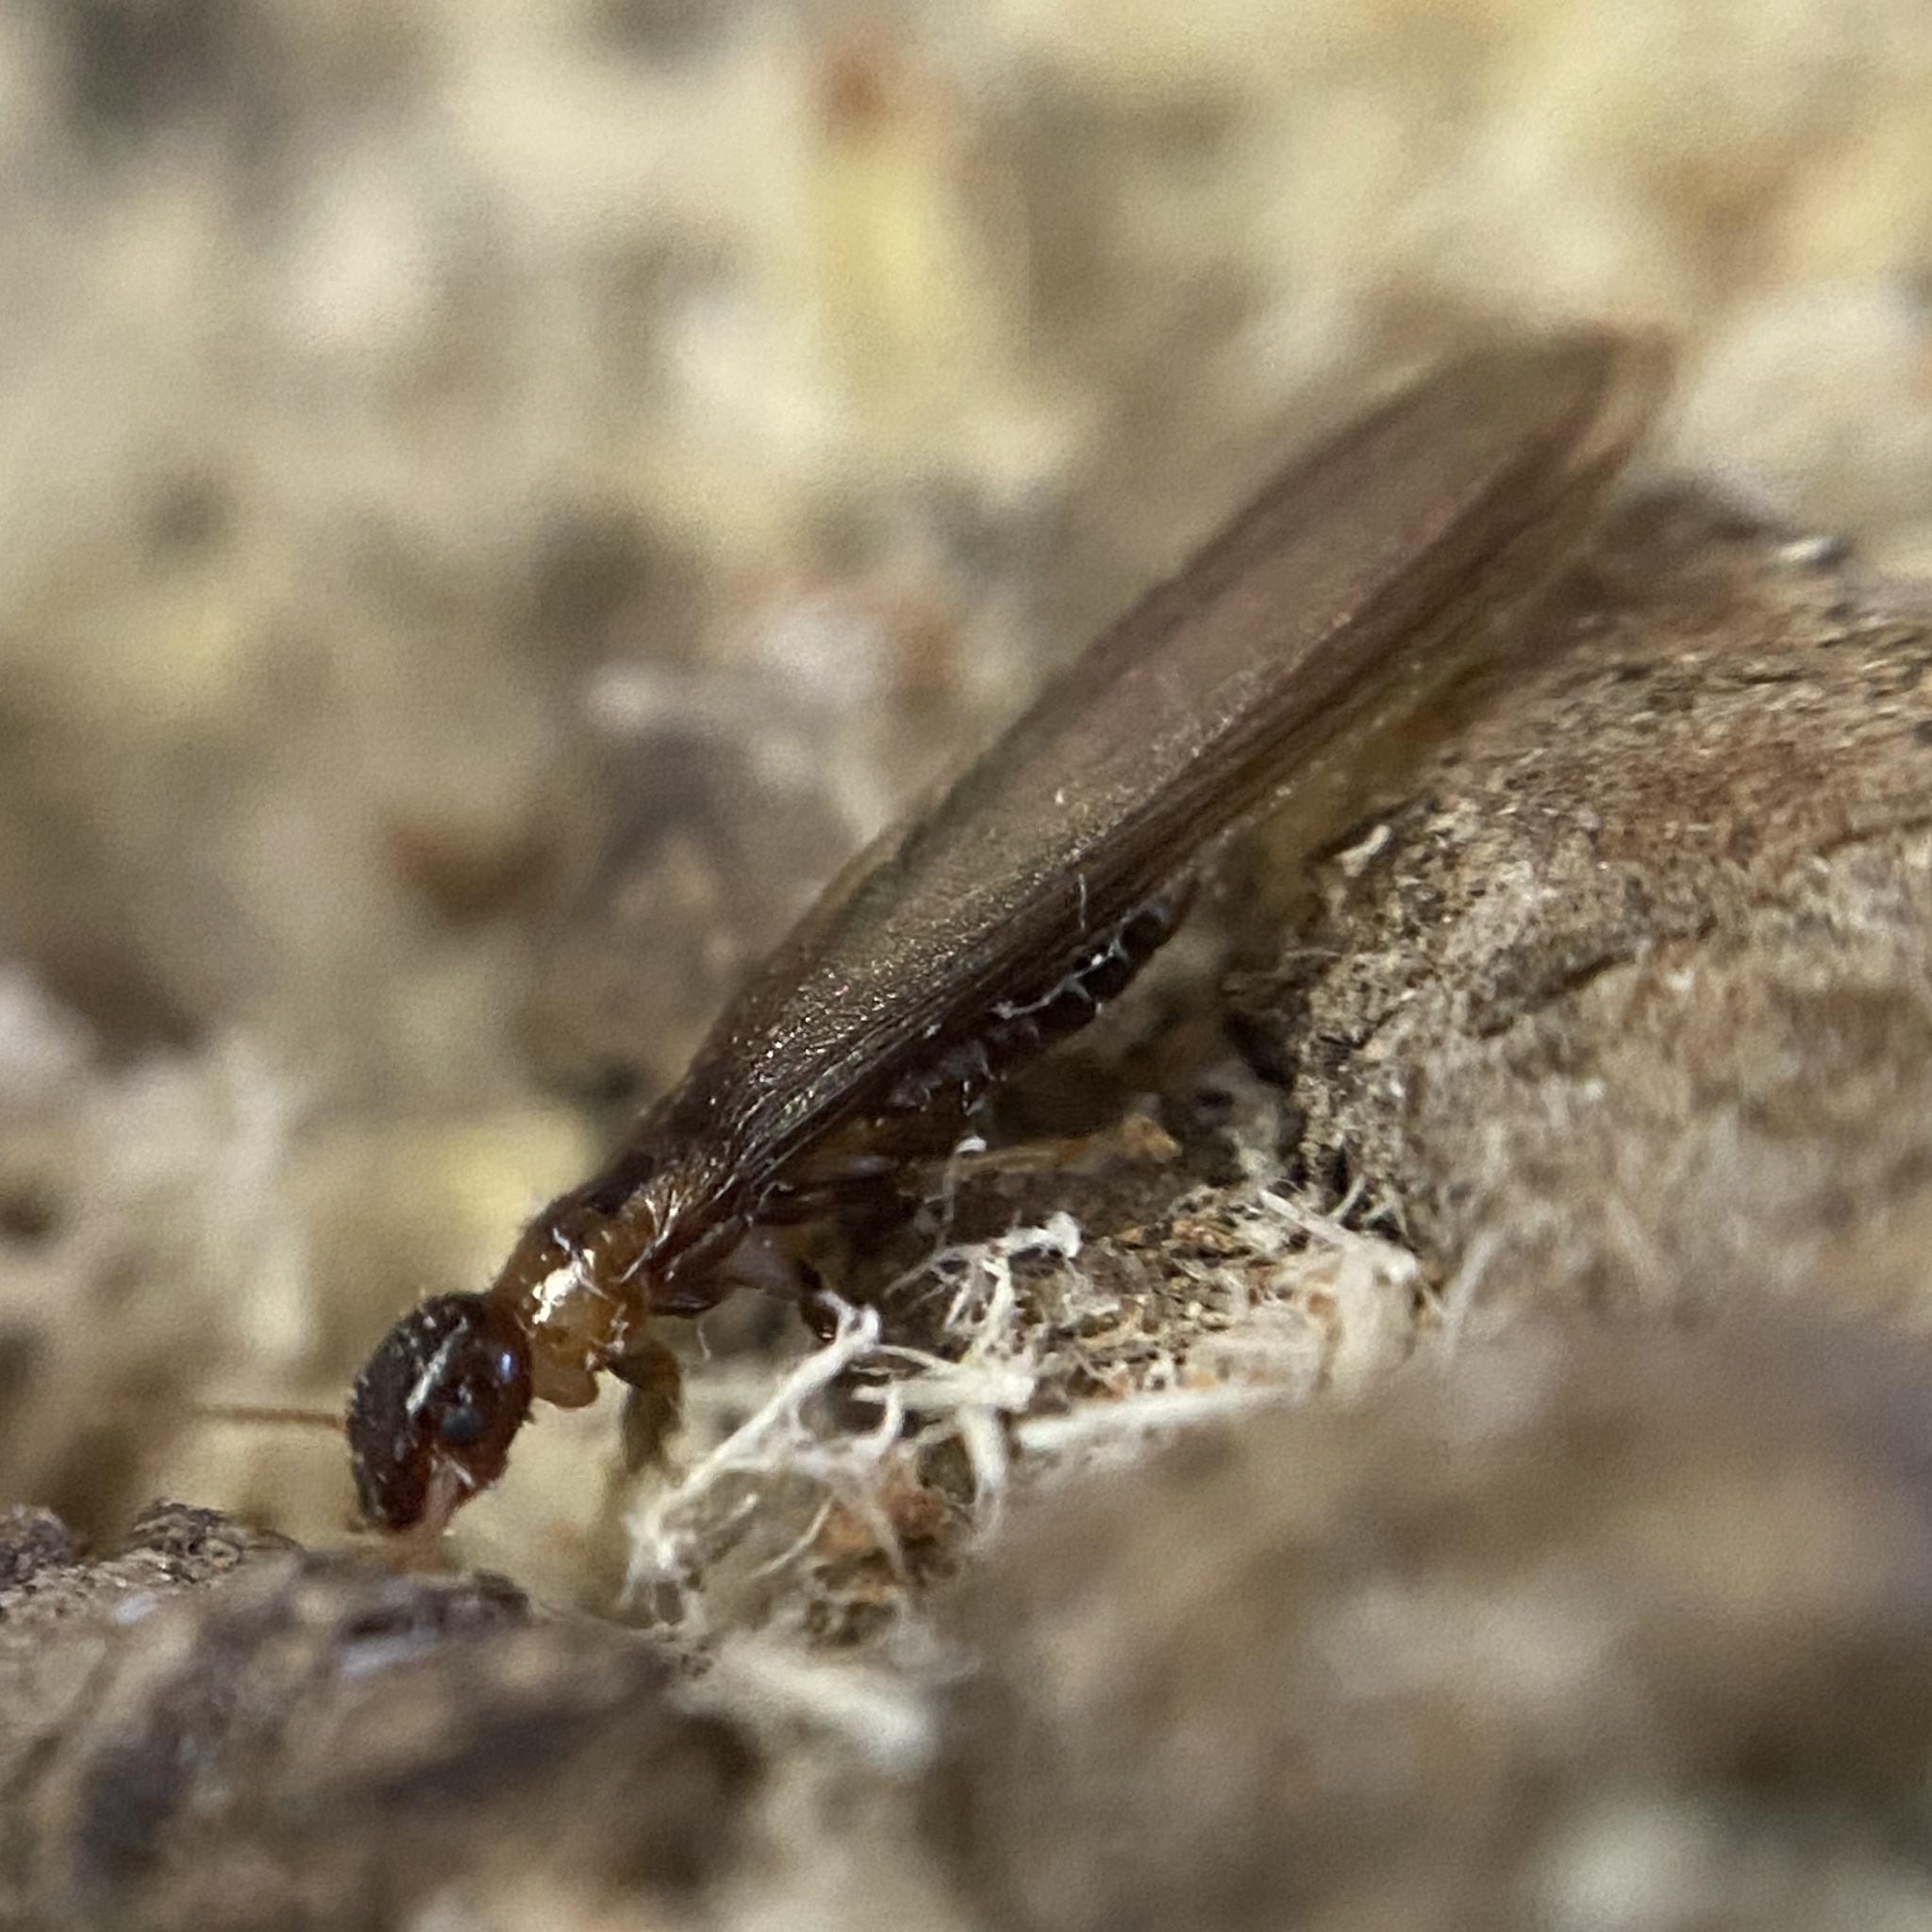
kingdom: Animalia
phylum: Arthropoda
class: Insecta
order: Blattodea
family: Kalotermitidae
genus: Kalotermes
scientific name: Kalotermes flavicollis
